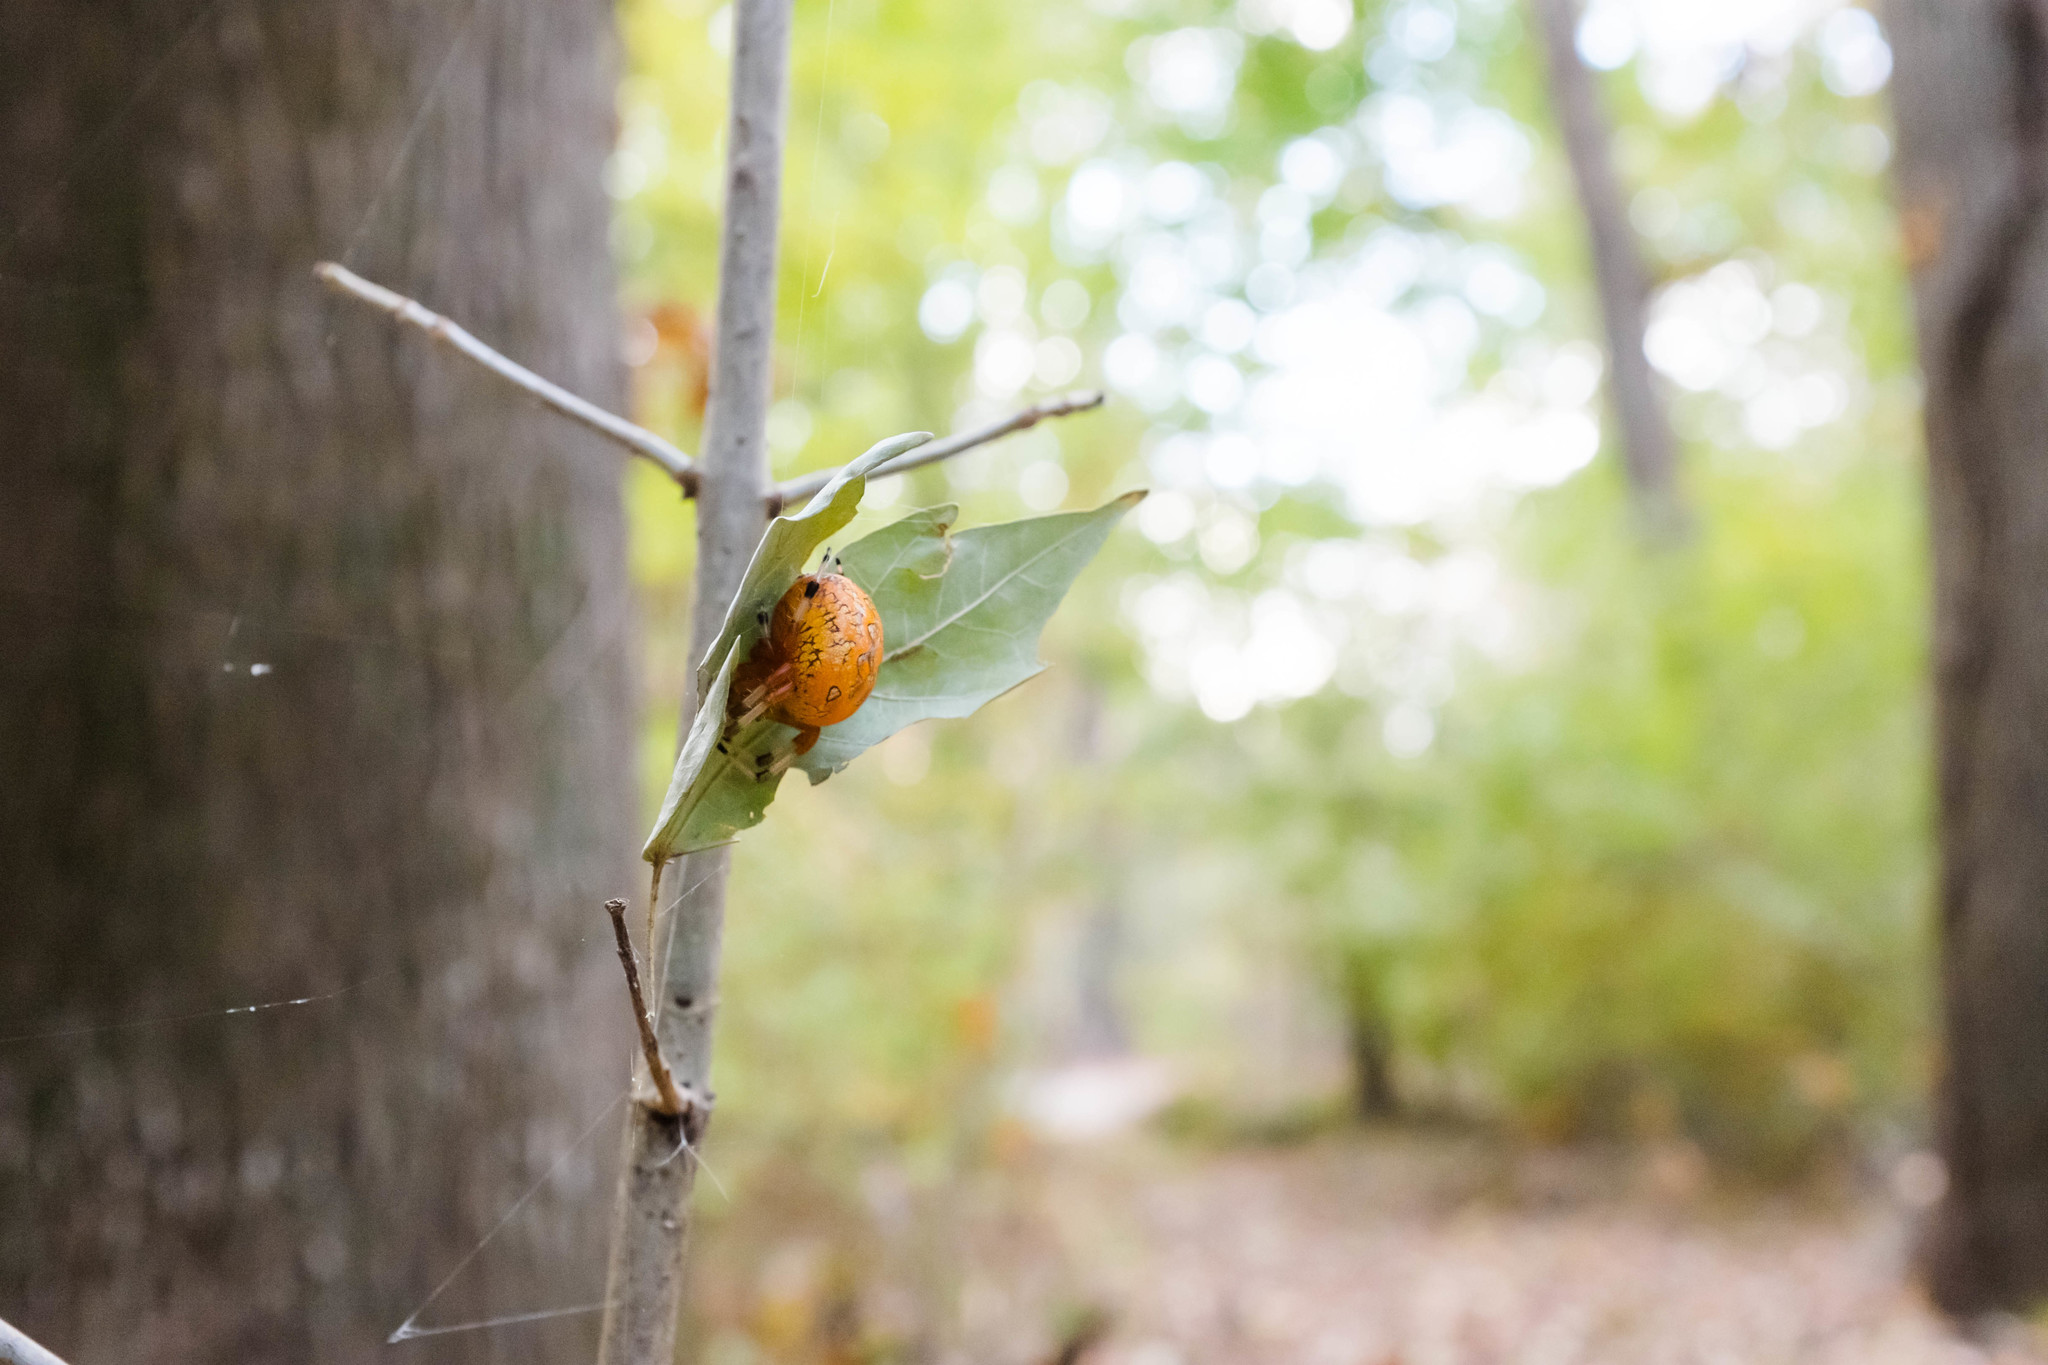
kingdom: Animalia
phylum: Arthropoda
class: Arachnida
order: Araneae
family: Araneidae
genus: Araneus
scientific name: Araneus marmoreus
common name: Marbled orbweaver
